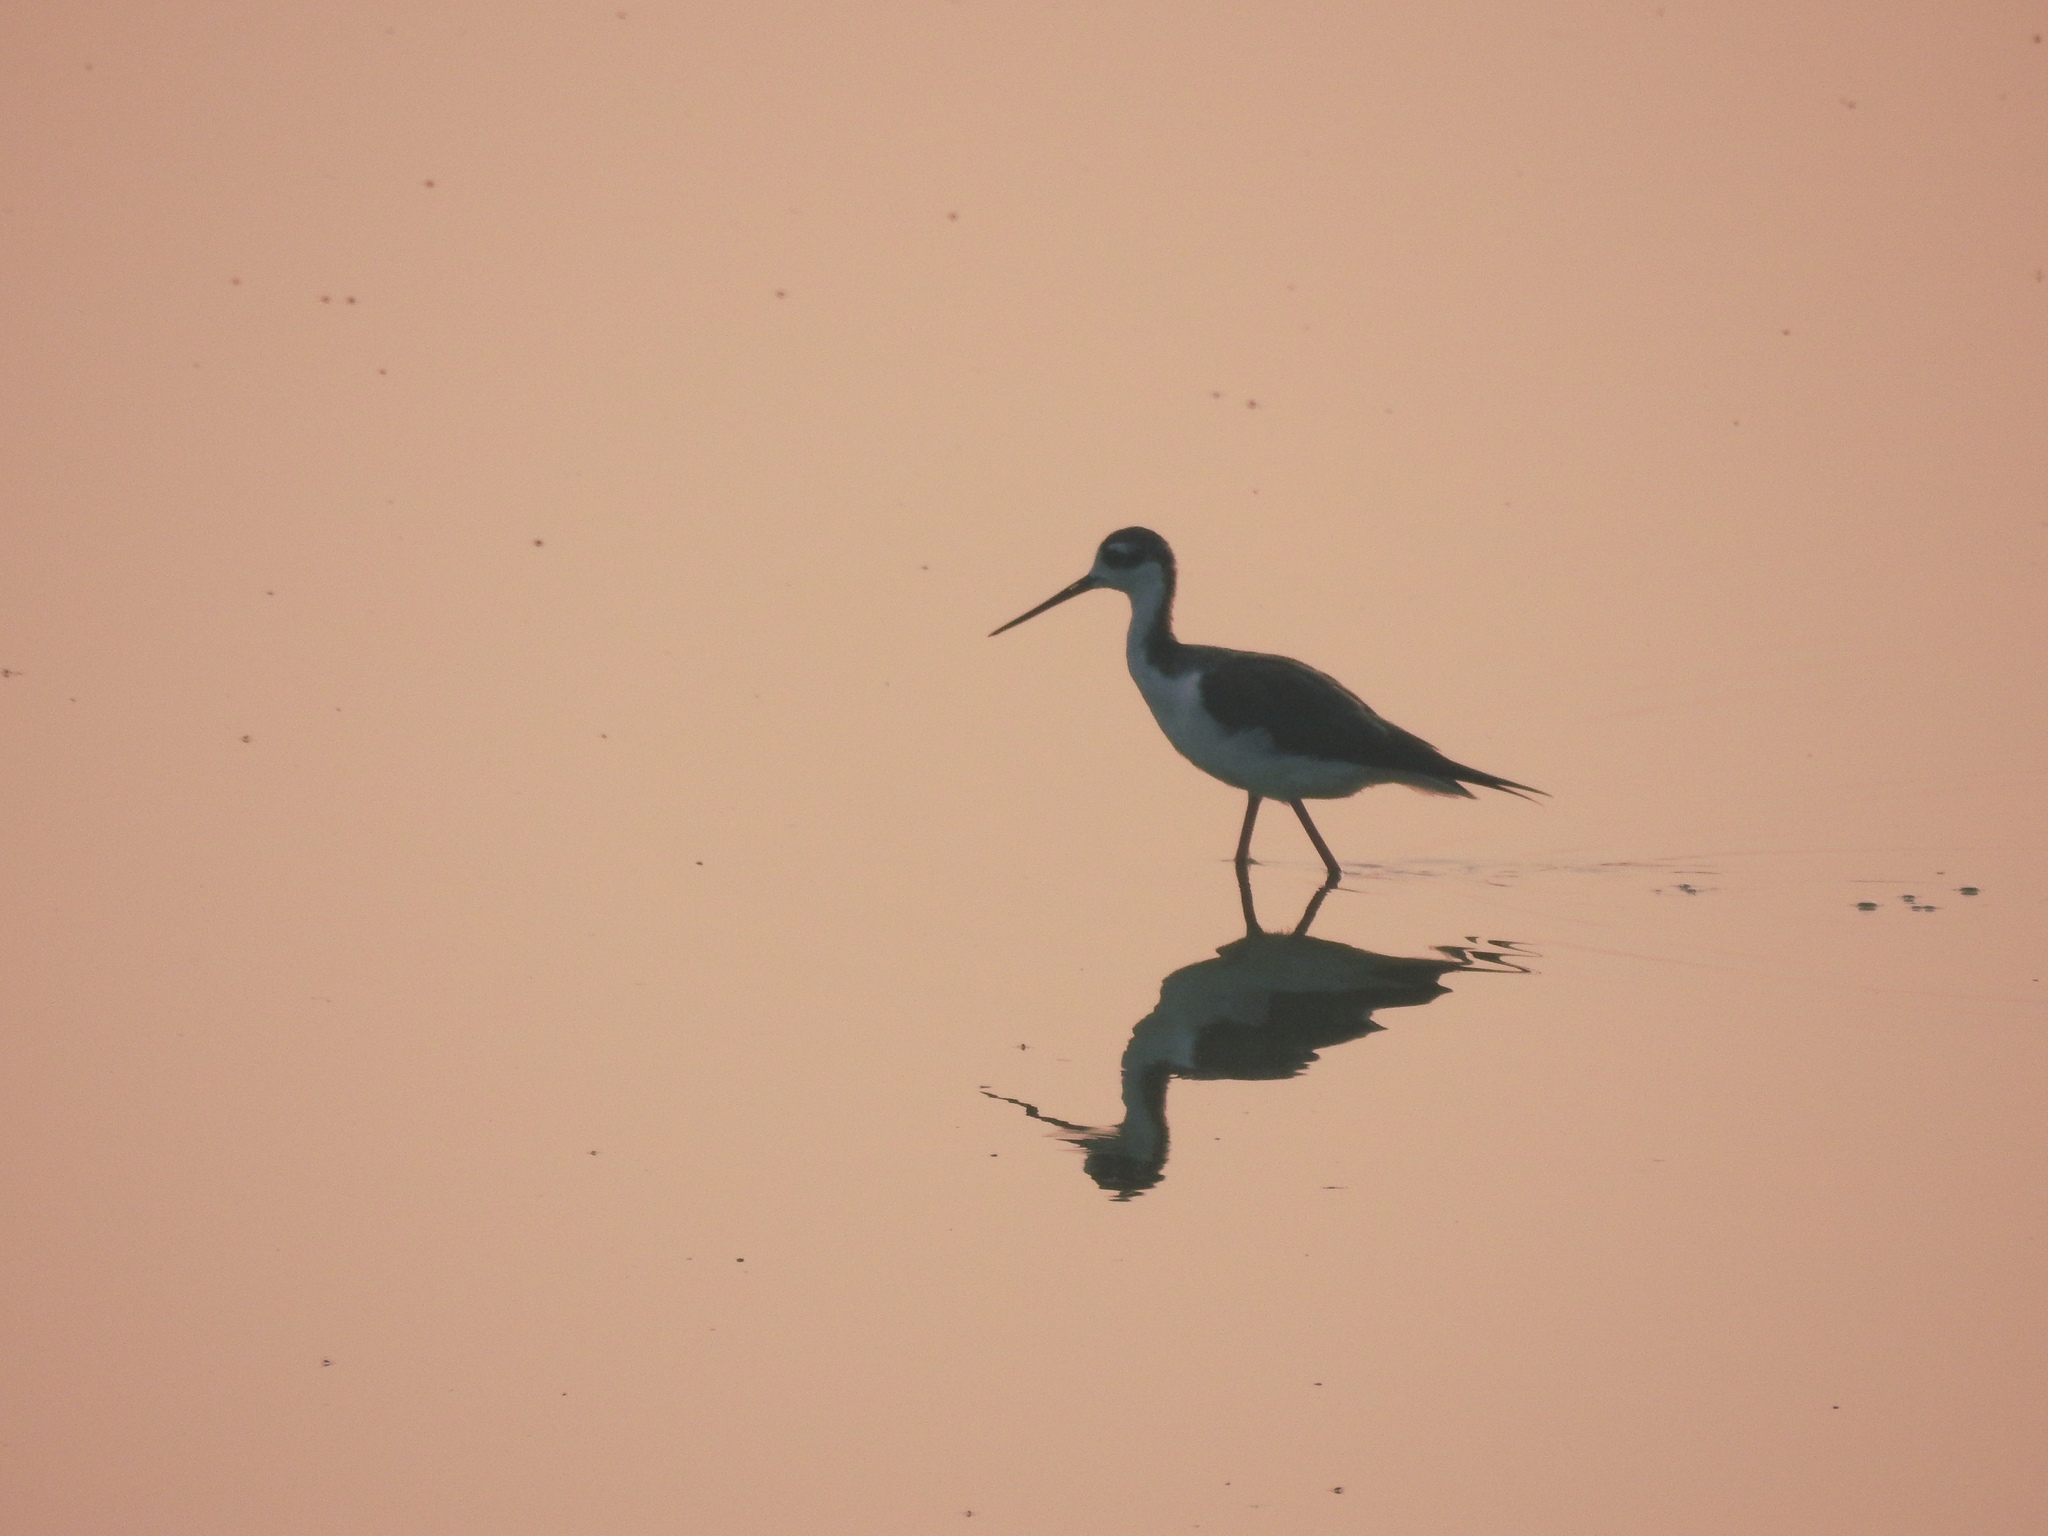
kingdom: Animalia
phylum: Chordata
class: Aves
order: Charadriiformes
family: Recurvirostridae
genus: Himantopus
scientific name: Himantopus mexicanus
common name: Black-necked stilt
